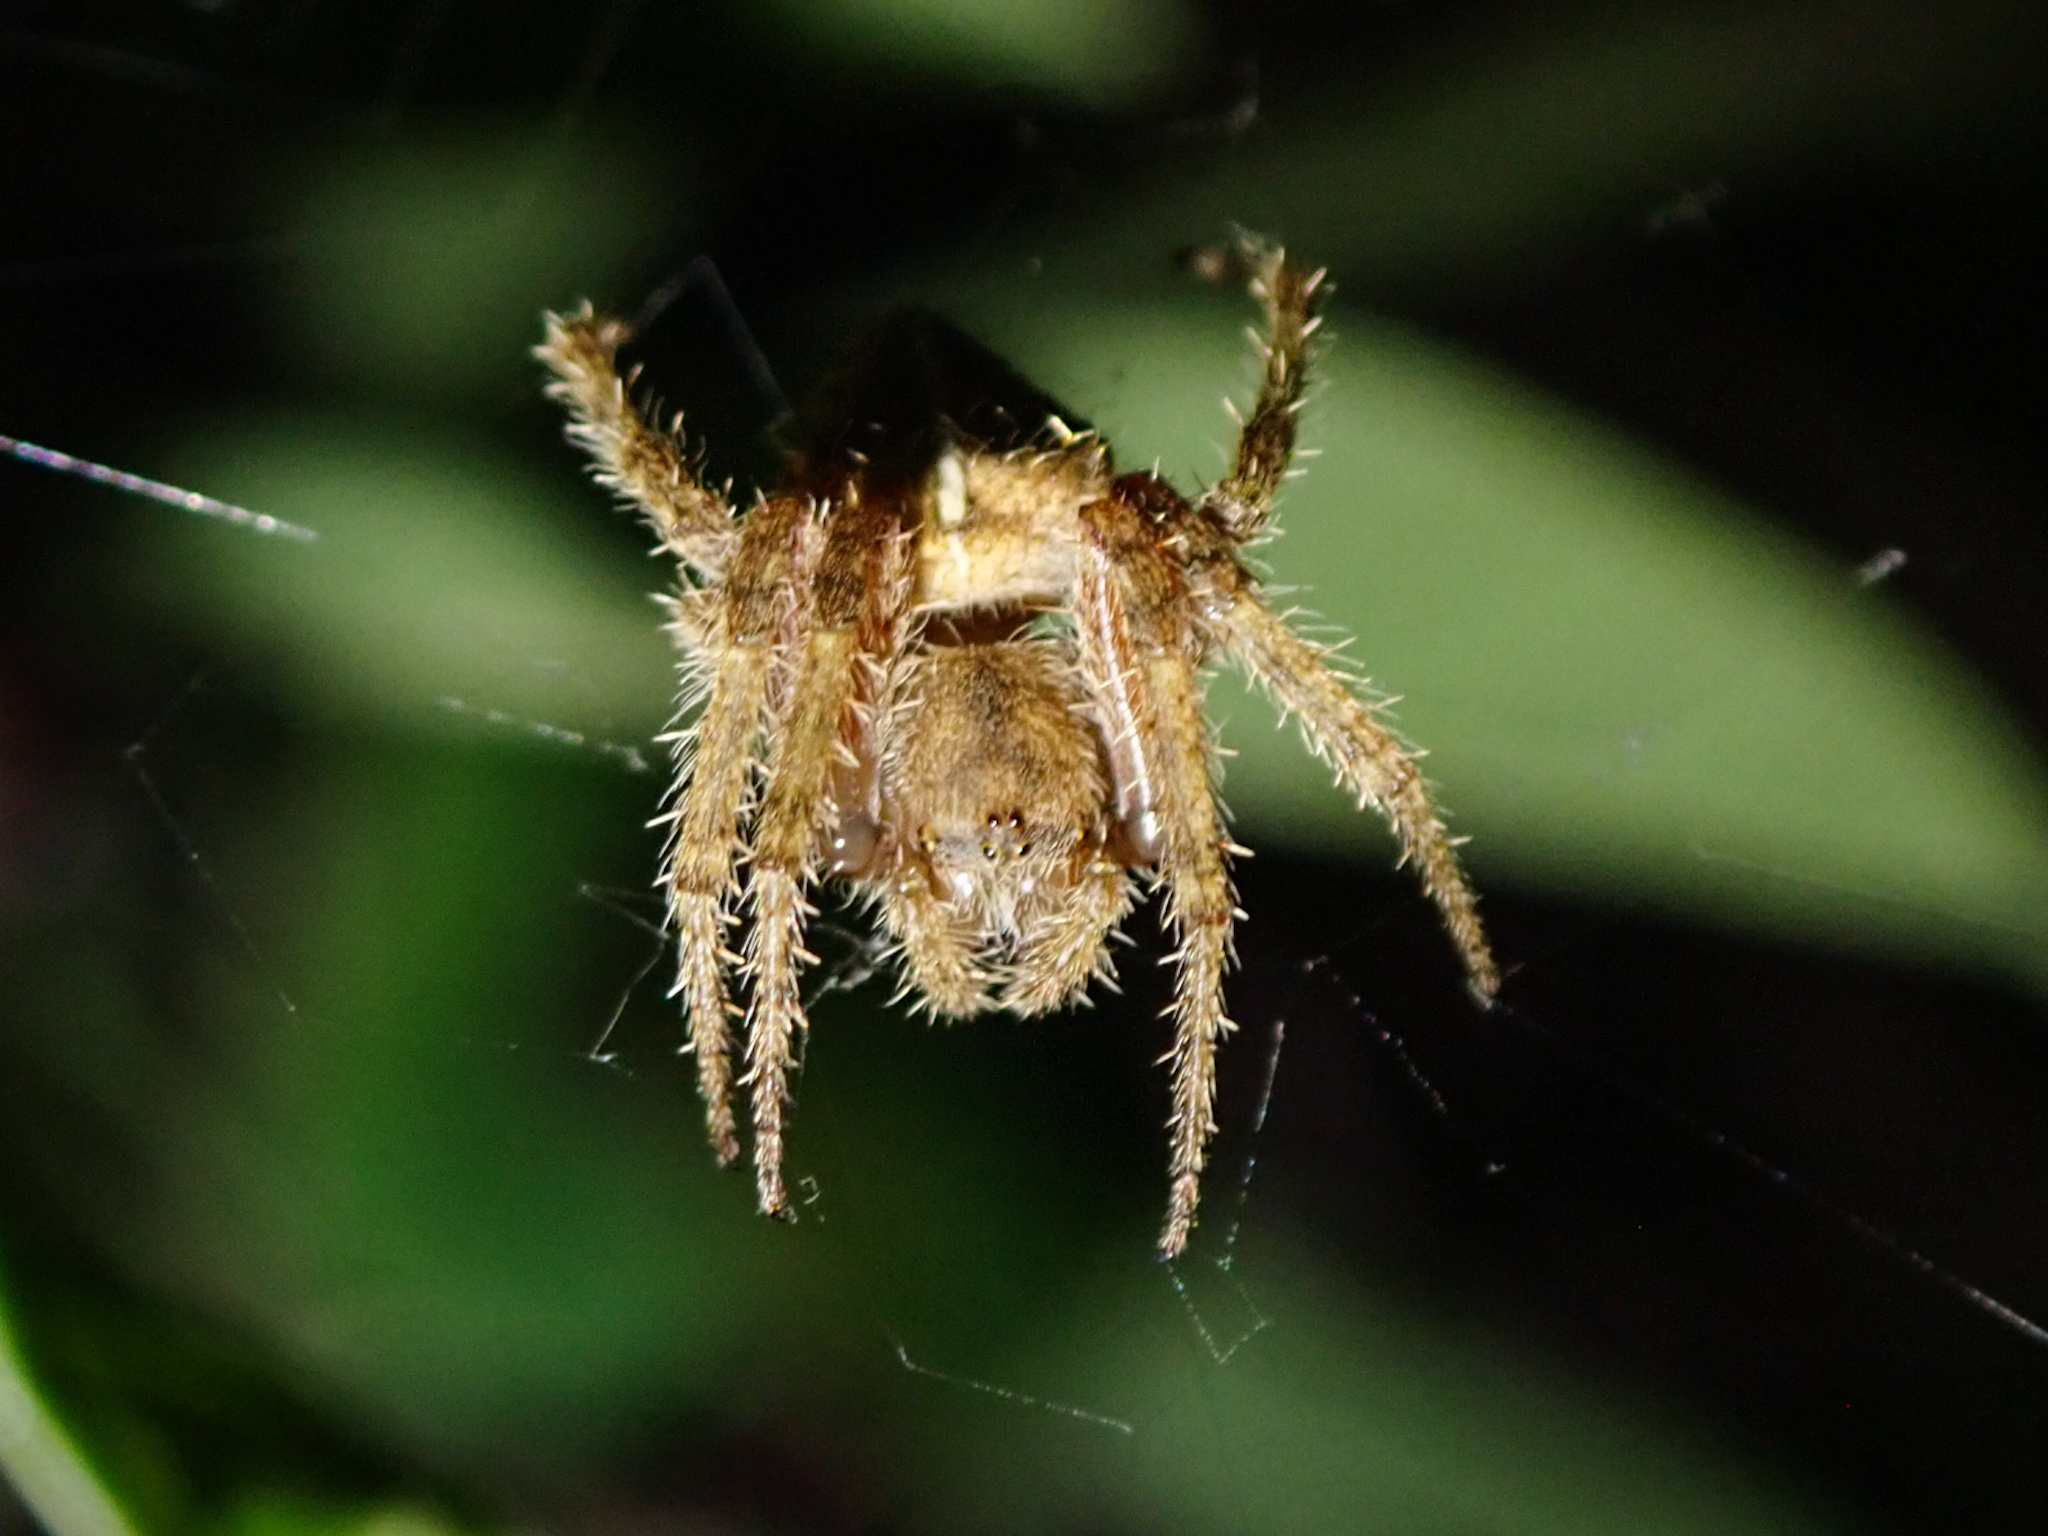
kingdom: Animalia
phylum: Arthropoda
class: Arachnida
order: Araneae
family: Araneidae
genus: Eriophora
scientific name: Eriophora edax
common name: Orb weavers
